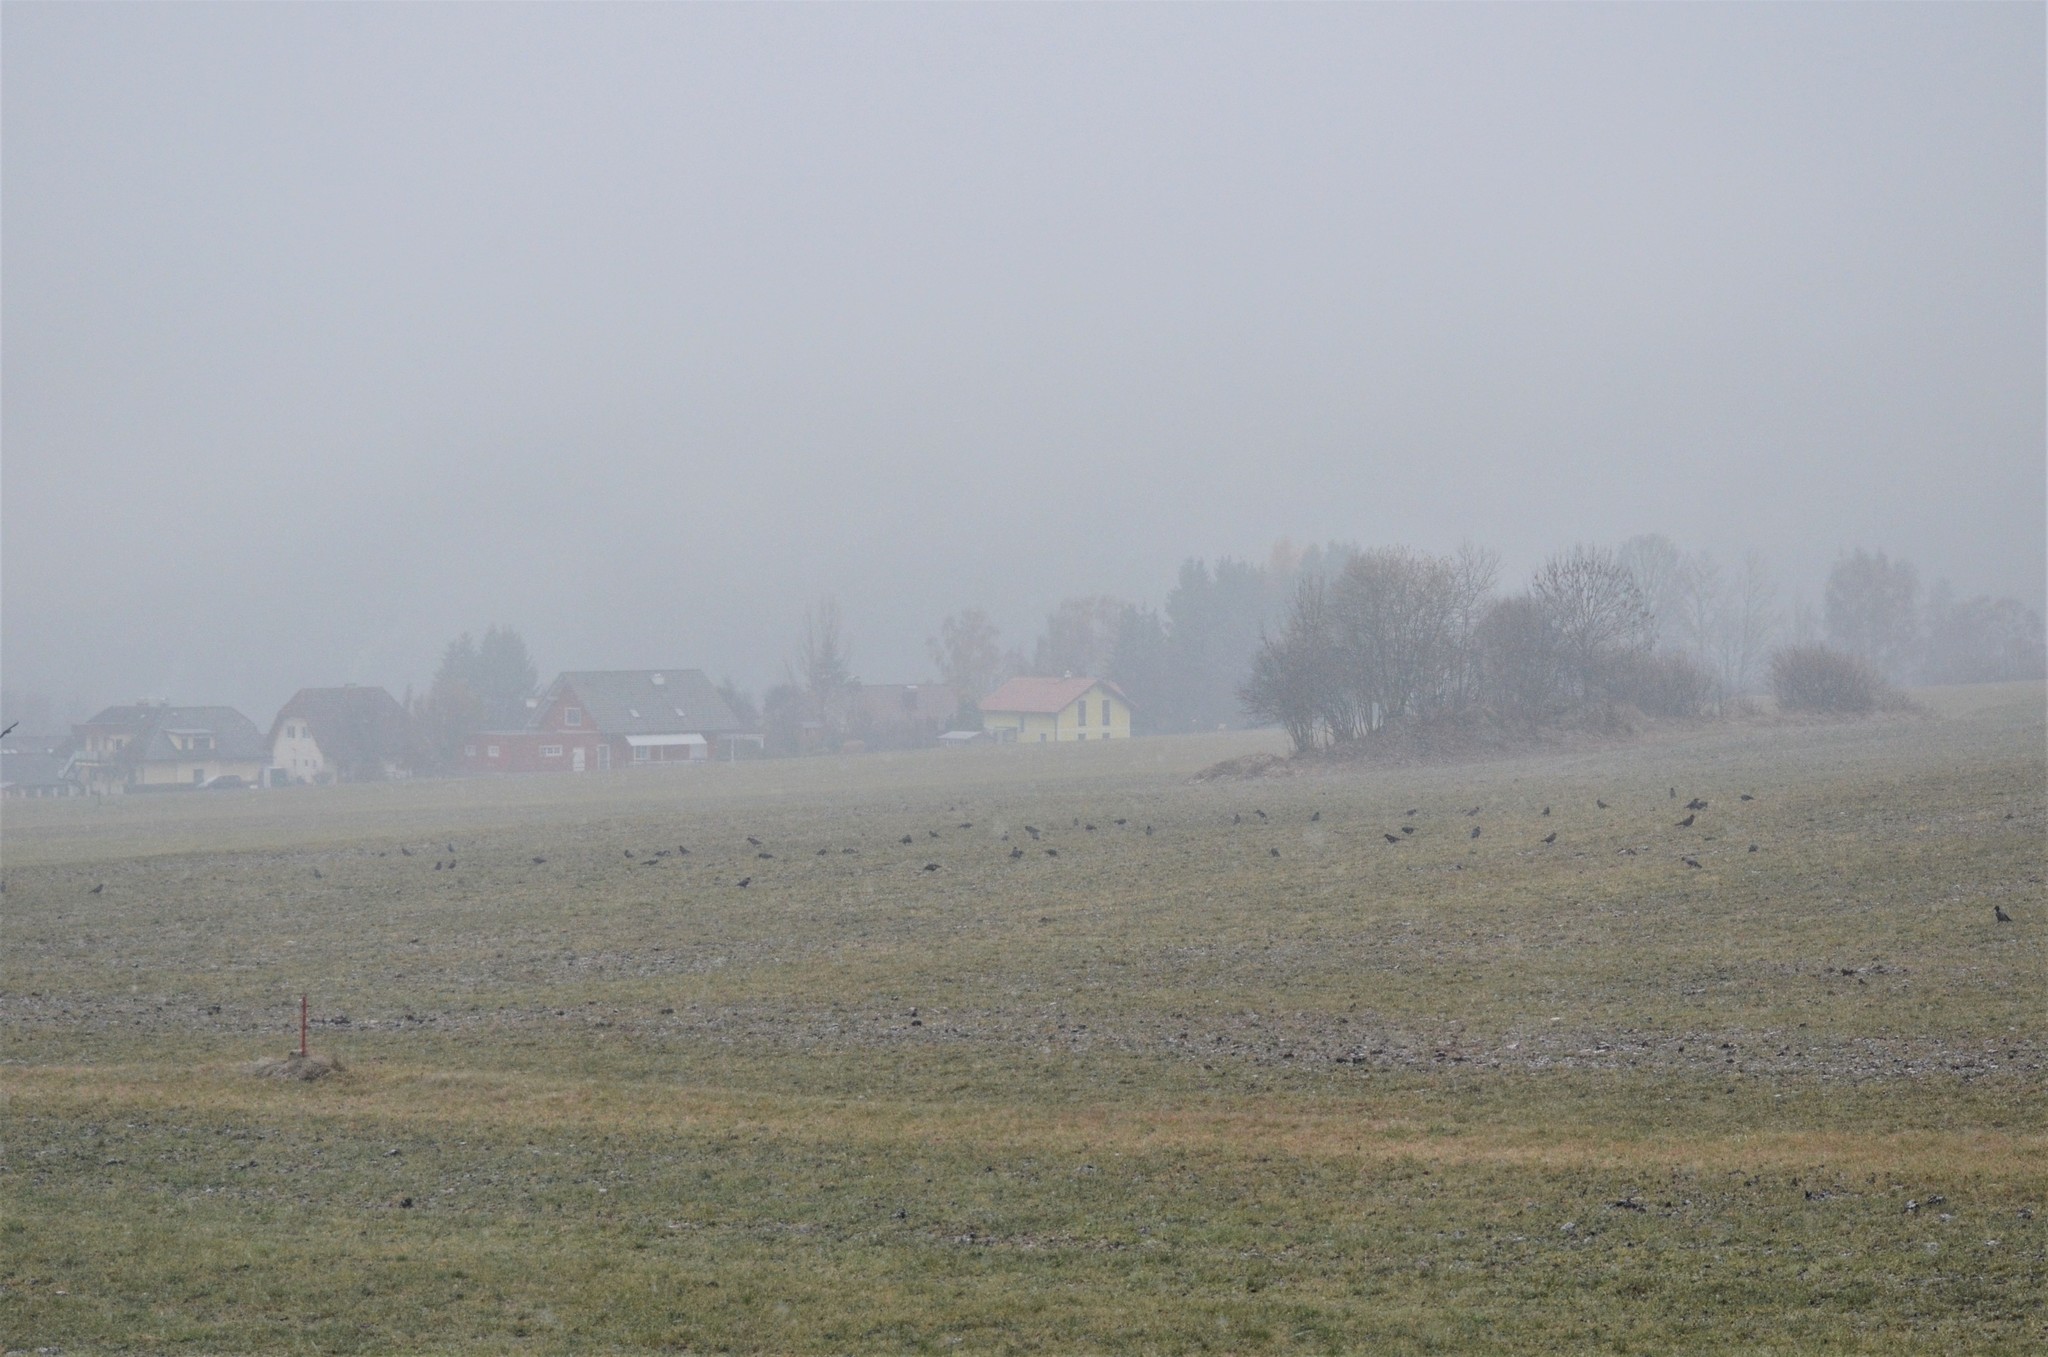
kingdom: Animalia
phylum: Chordata
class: Aves
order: Passeriformes
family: Corvidae
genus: Corvus
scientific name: Corvus cornix
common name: Hooded crow
